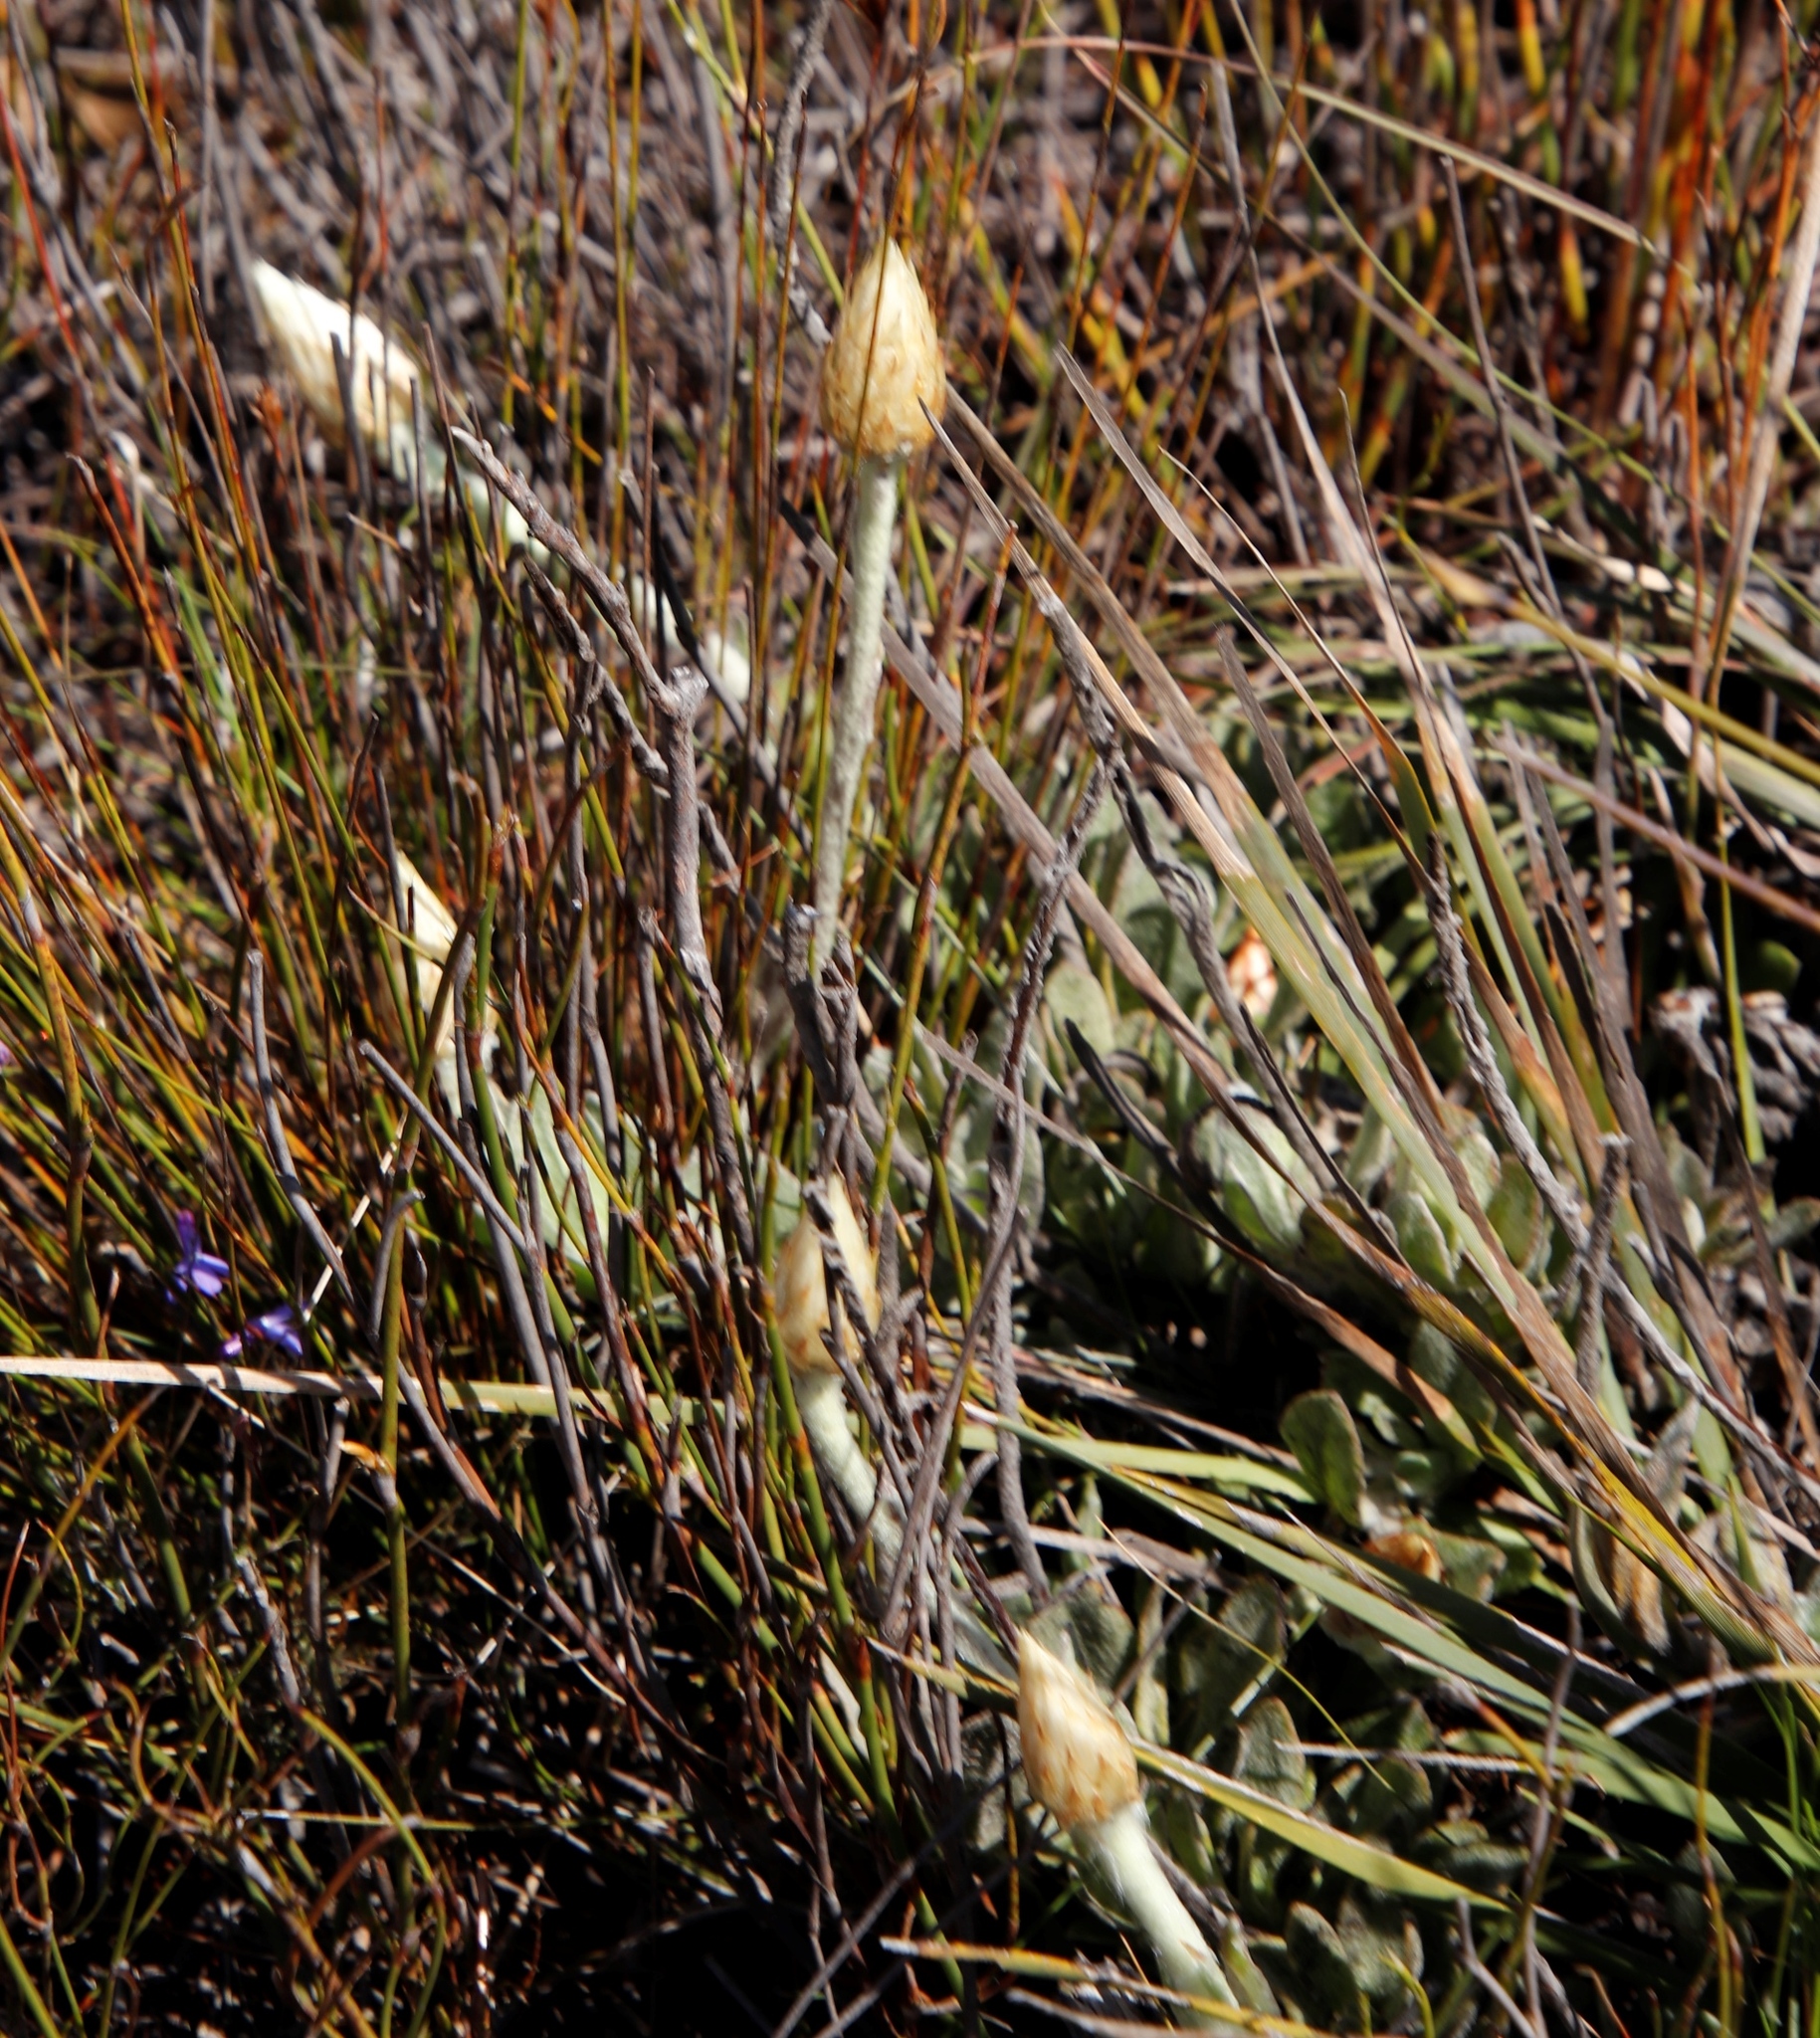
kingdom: Plantae
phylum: Tracheophyta
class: Magnoliopsida
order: Asterales
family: Asteraceae
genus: Syncarpha
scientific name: Syncarpha speciosissima
